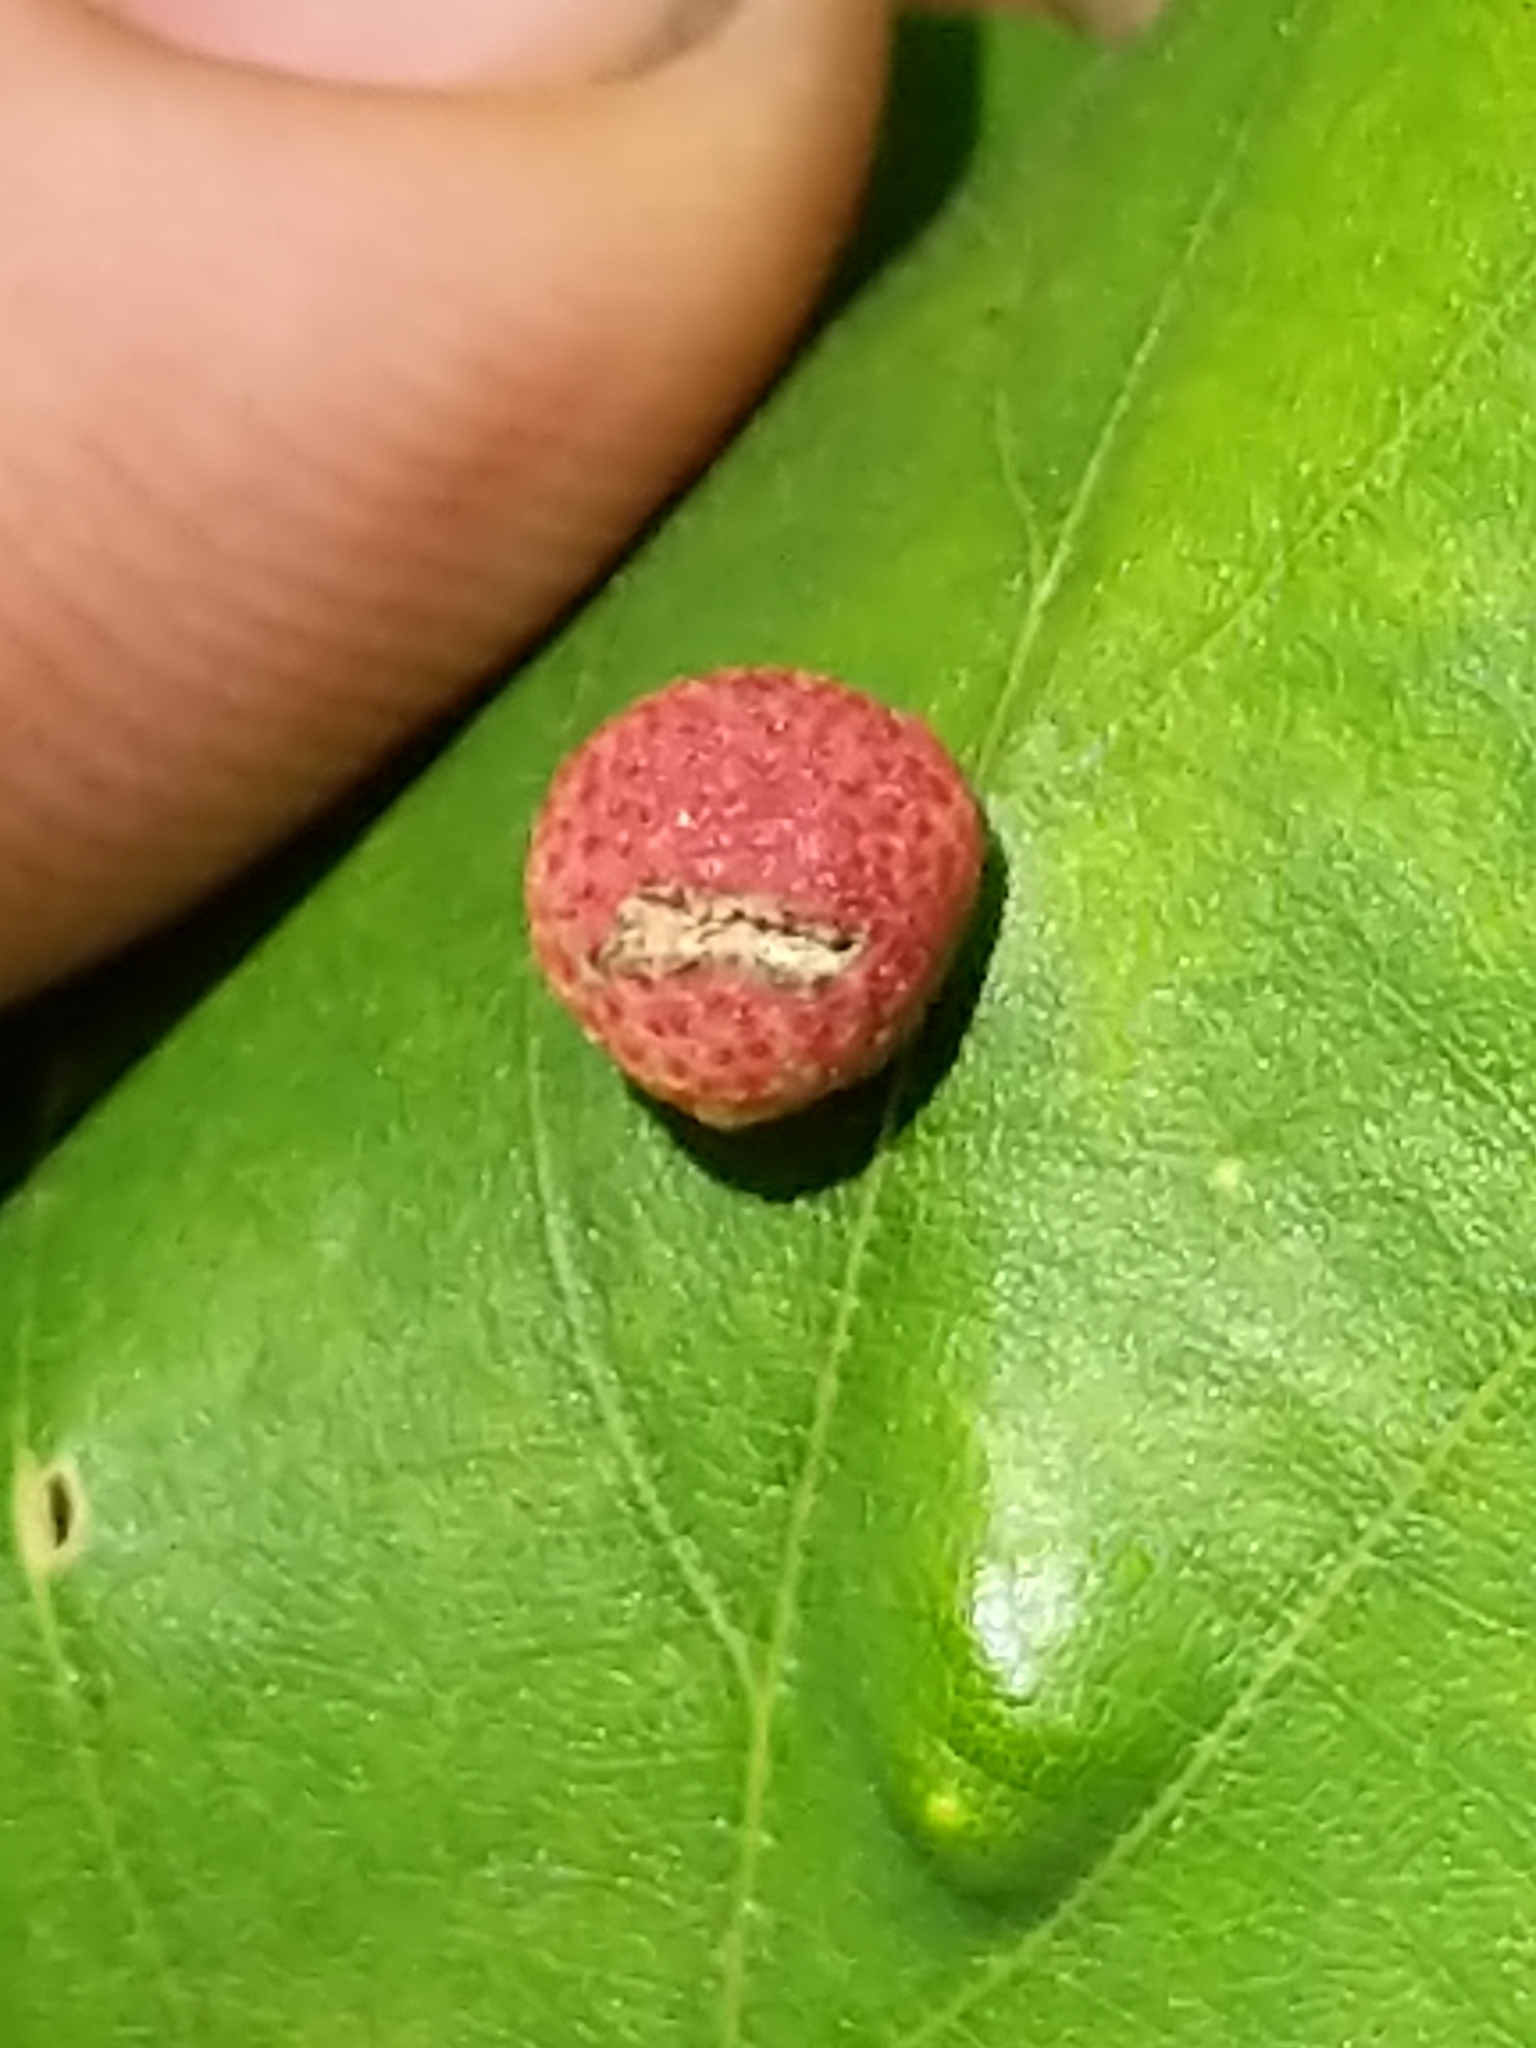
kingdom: Animalia
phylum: Arthropoda
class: Insecta
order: Hymenoptera
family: Cynipidae
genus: Acraspis
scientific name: Acraspis quercushirta
